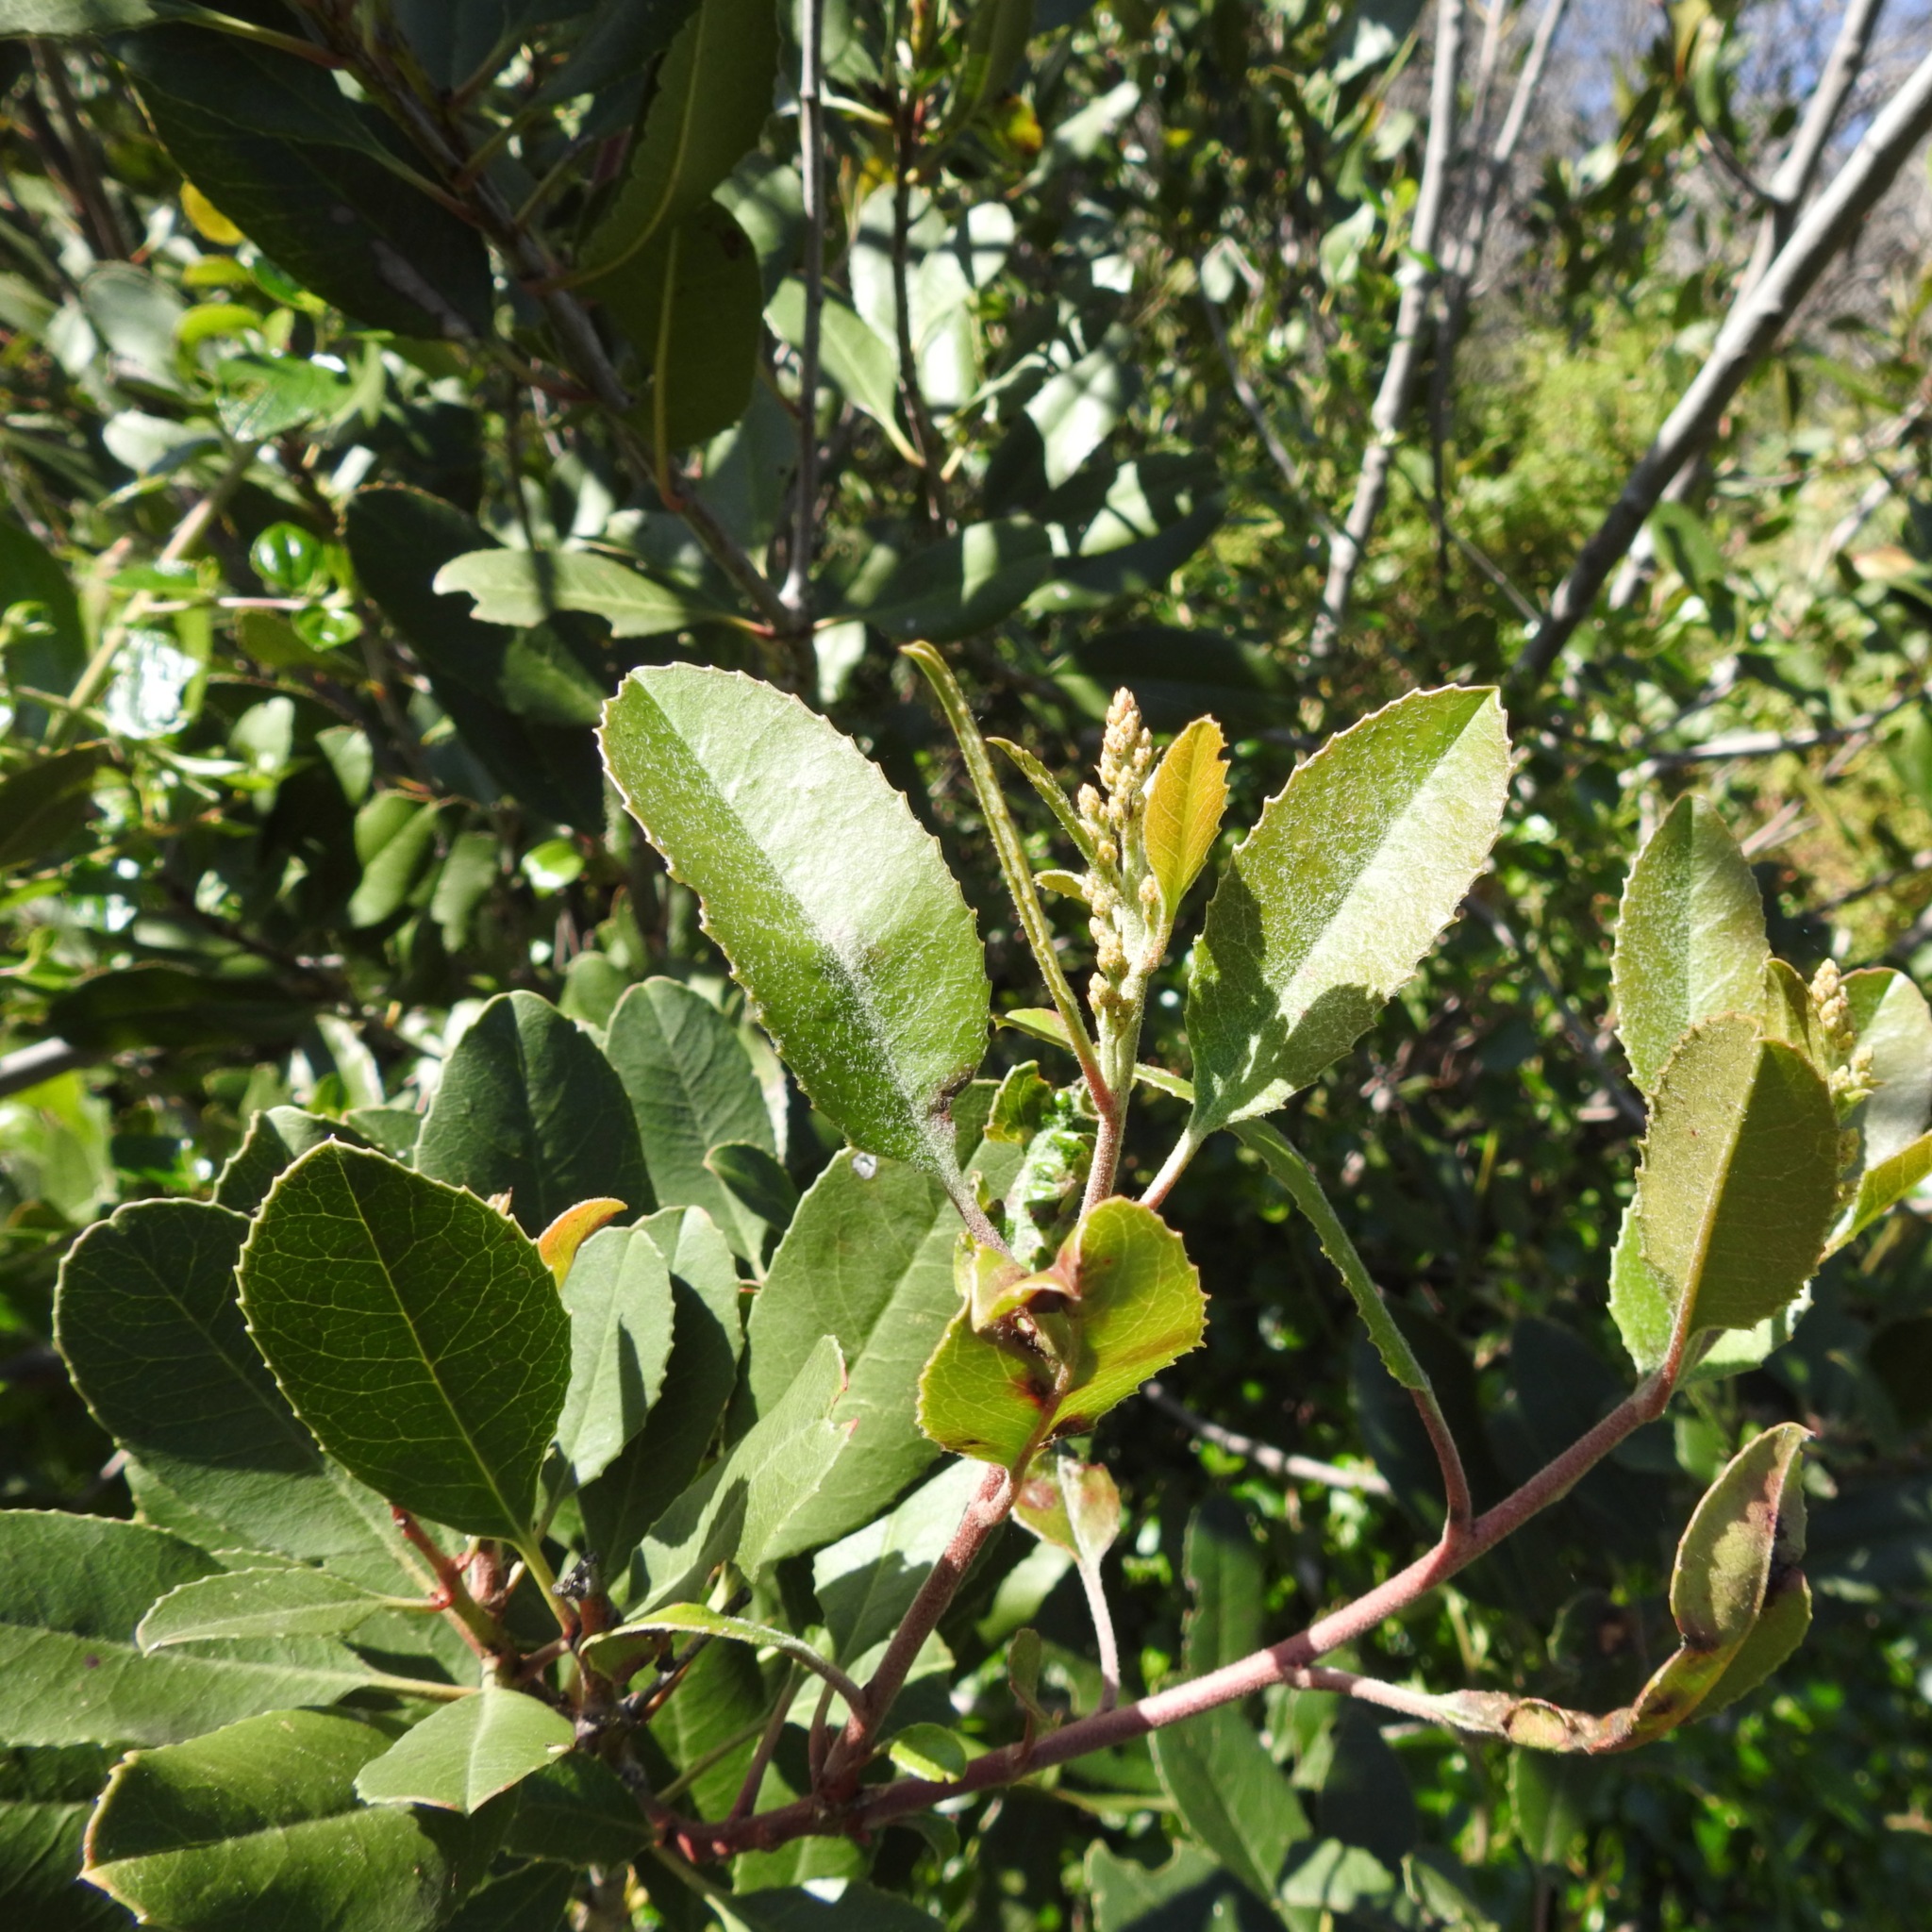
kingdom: Plantae
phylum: Tracheophyta
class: Magnoliopsida
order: Rosales
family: Rosaceae
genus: Heteromeles
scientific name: Heteromeles arbutifolia
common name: California-holly
